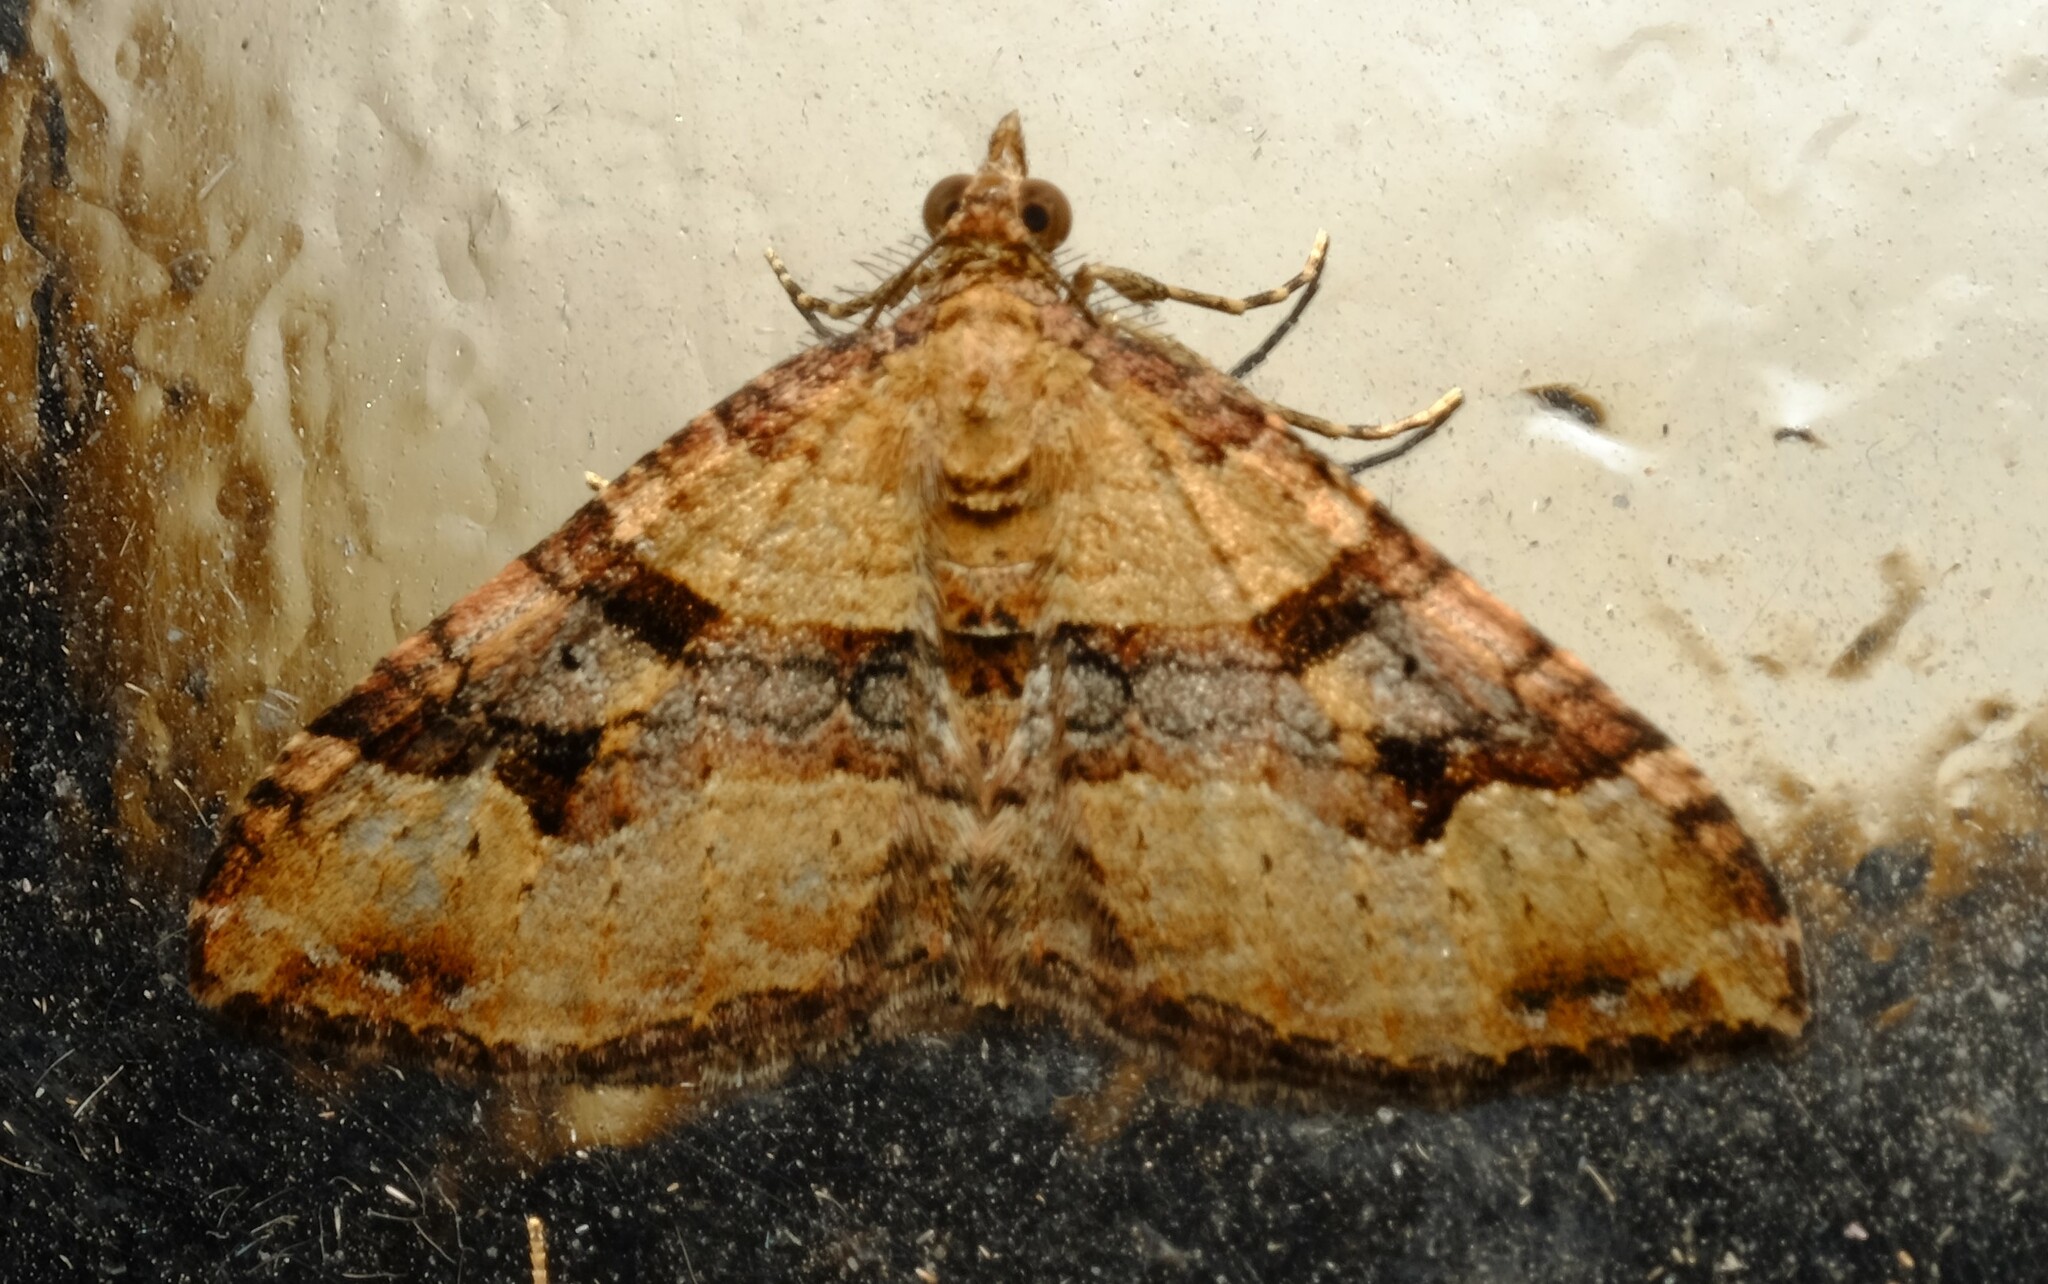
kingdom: Animalia
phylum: Arthropoda
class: Insecta
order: Lepidoptera
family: Geometridae
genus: Epyaxa
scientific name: Epyaxa sodaliata
